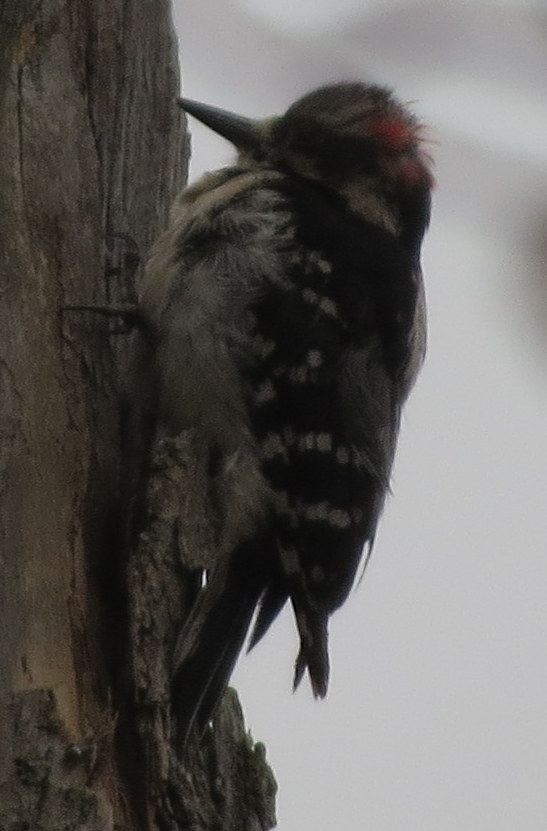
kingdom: Animalia
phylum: Chordata
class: Aves
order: Piciformes
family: Picidae
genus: Leuconotopicus
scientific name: Leuconotopicus villosus
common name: Hairy woodpecker
